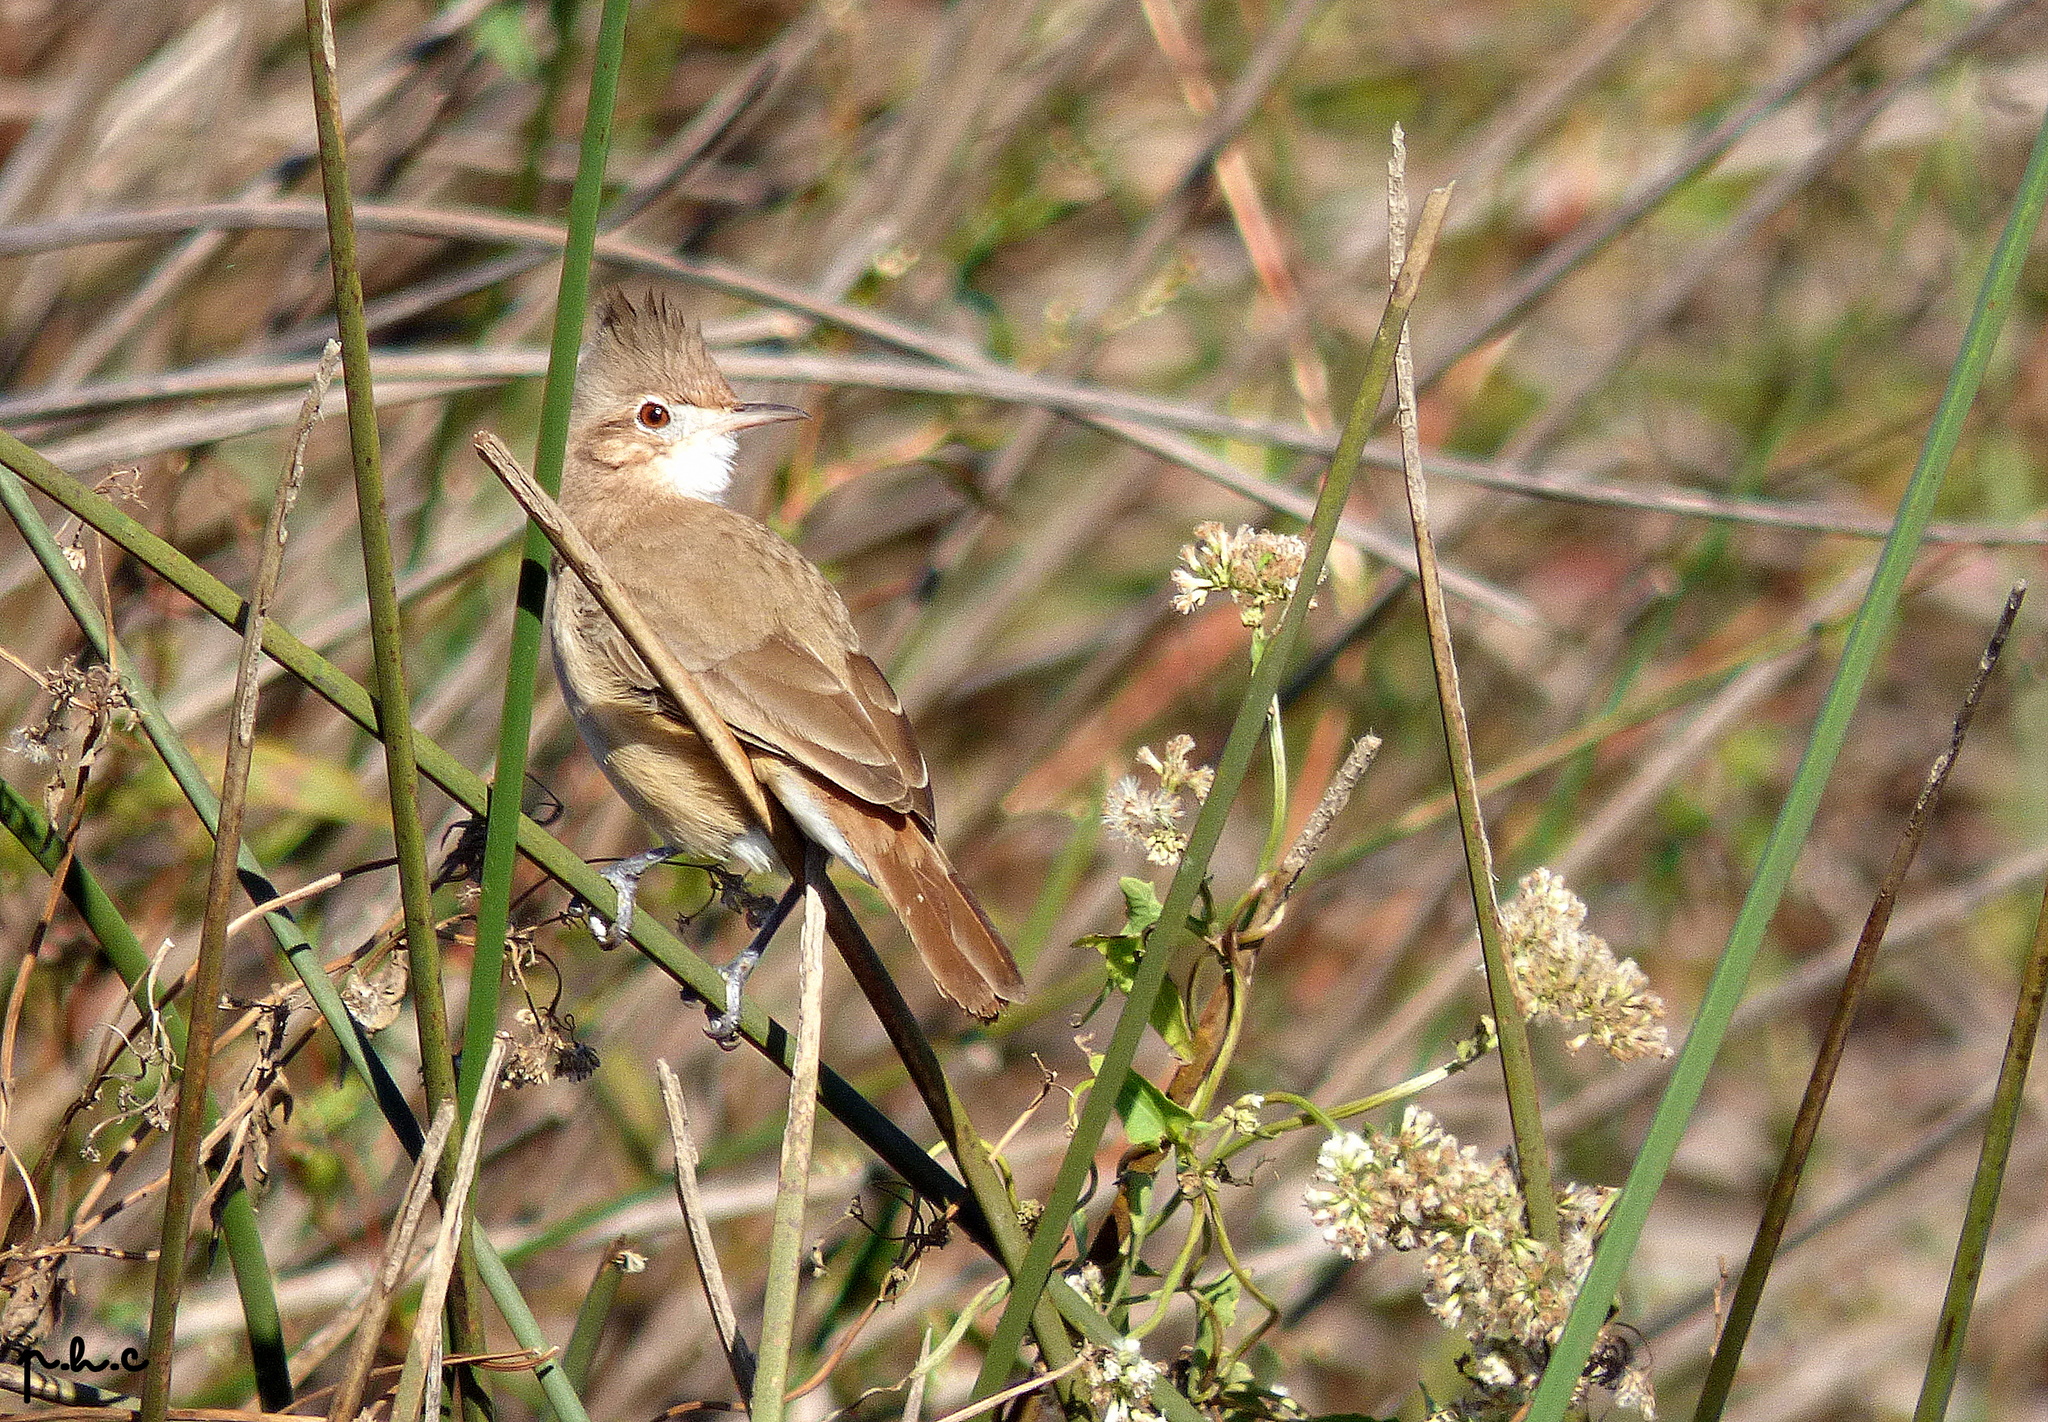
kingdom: Animalia
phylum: Chordata
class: Aves
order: Passeriformes
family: Furnariidae
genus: Furnarius
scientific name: Furnarius cristatus
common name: Crested hornero
